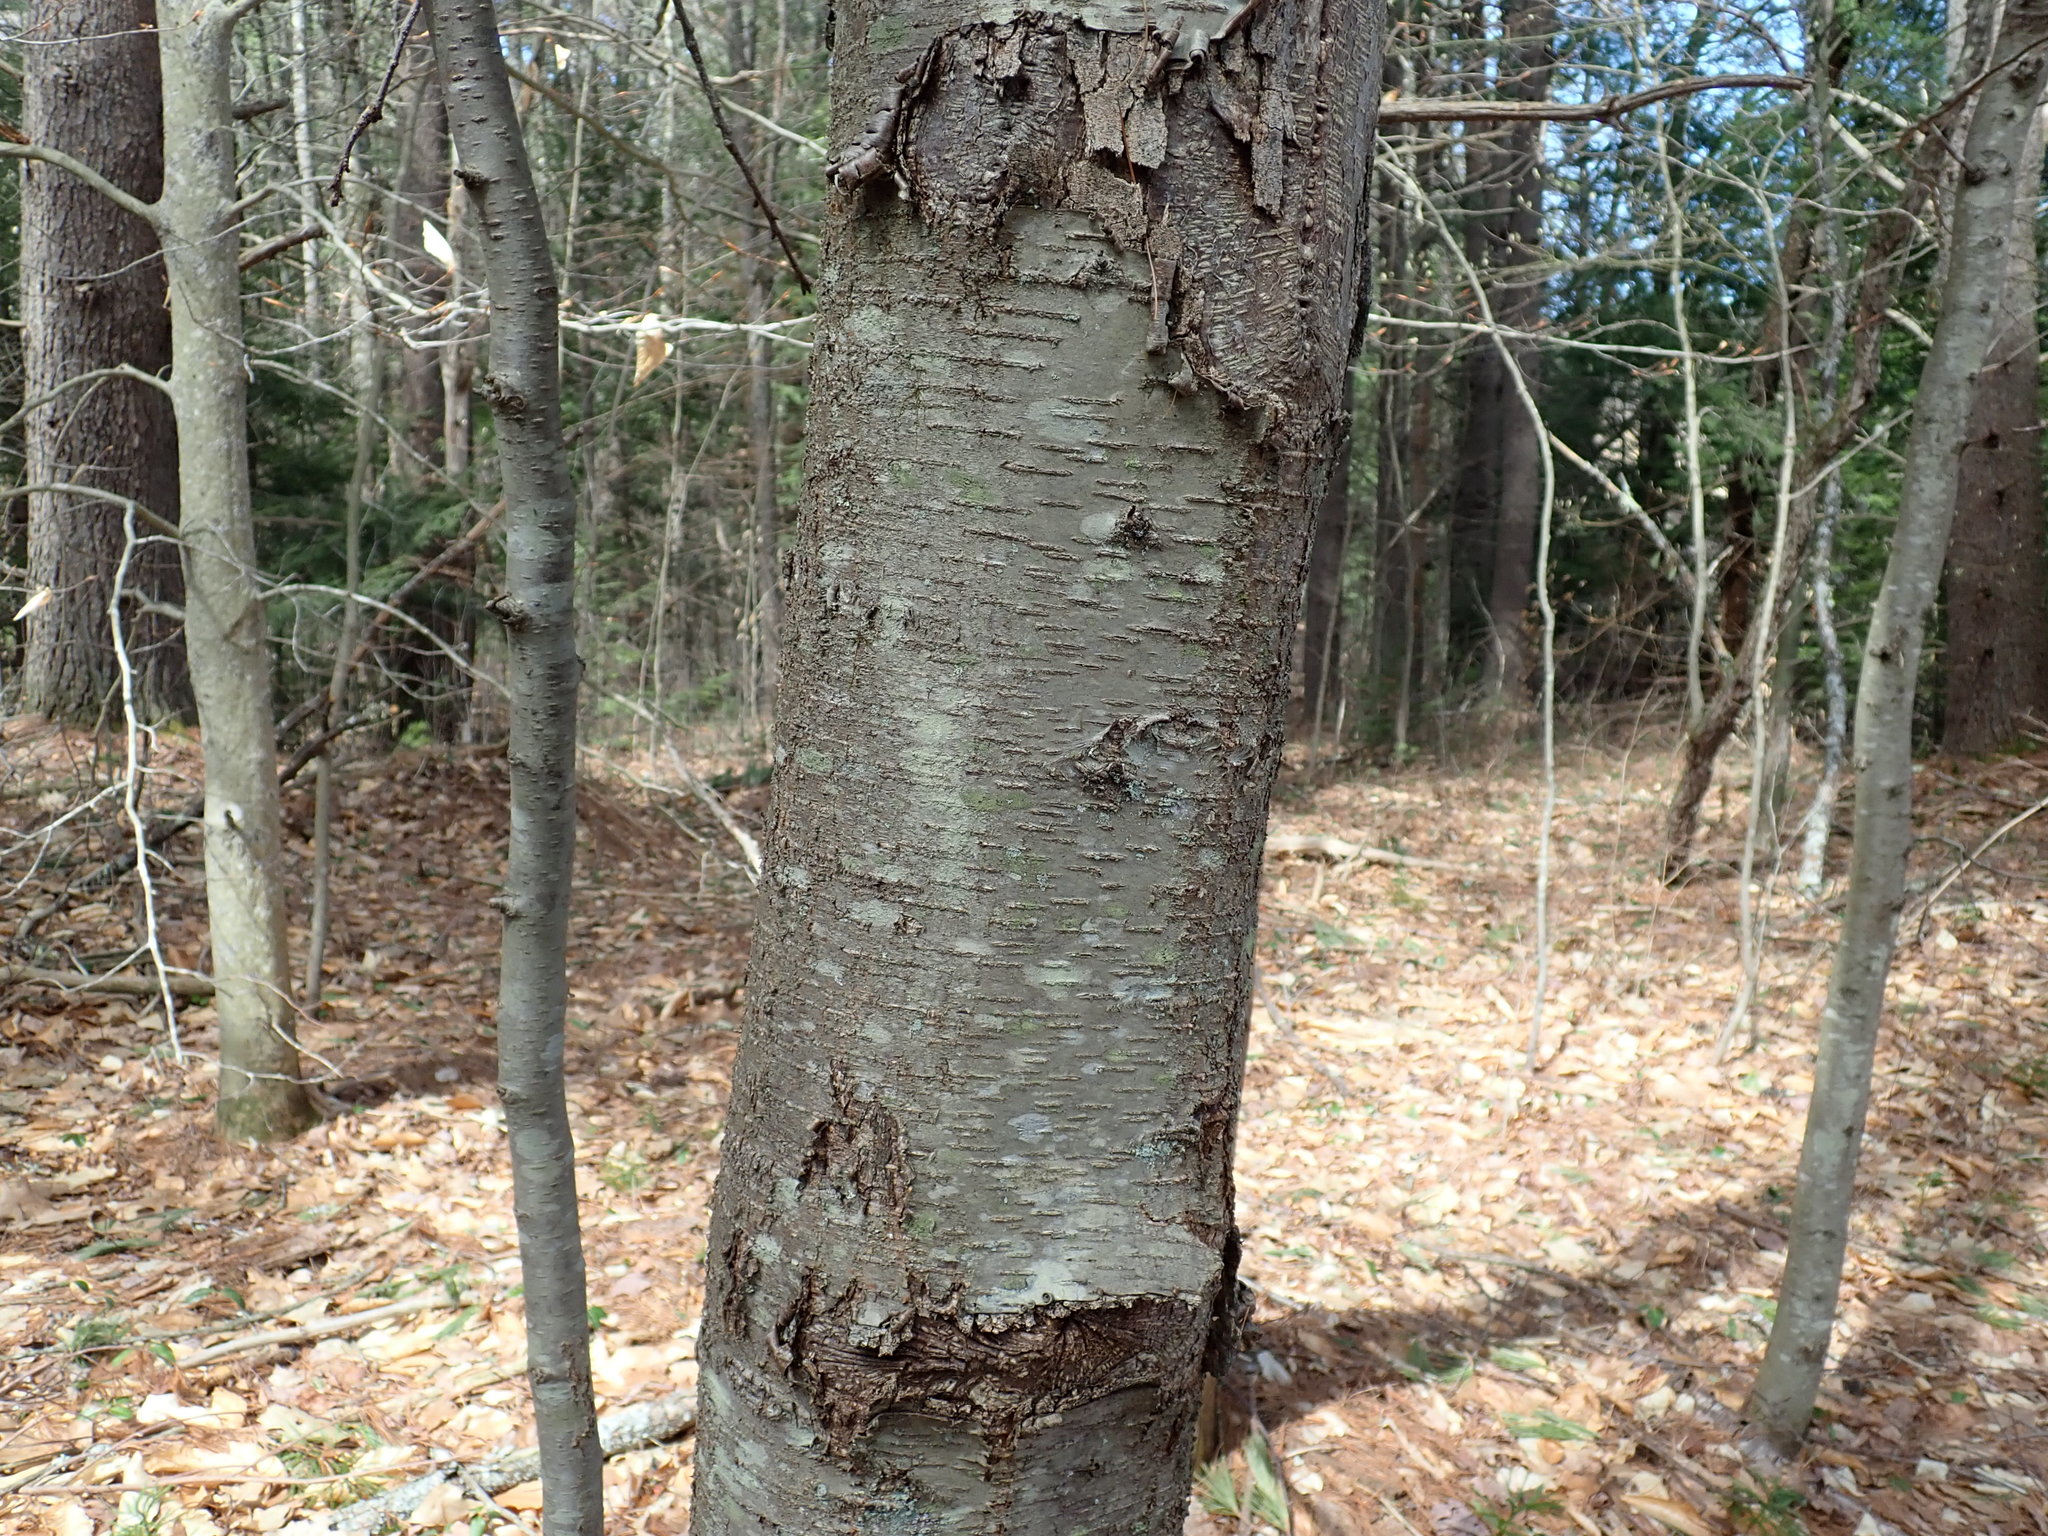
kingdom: Plantae
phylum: Tracheophyta
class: Magnoliopsida
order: Fagales
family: Betulaceae
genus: Betula
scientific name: Betula lenta
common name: Black birch
